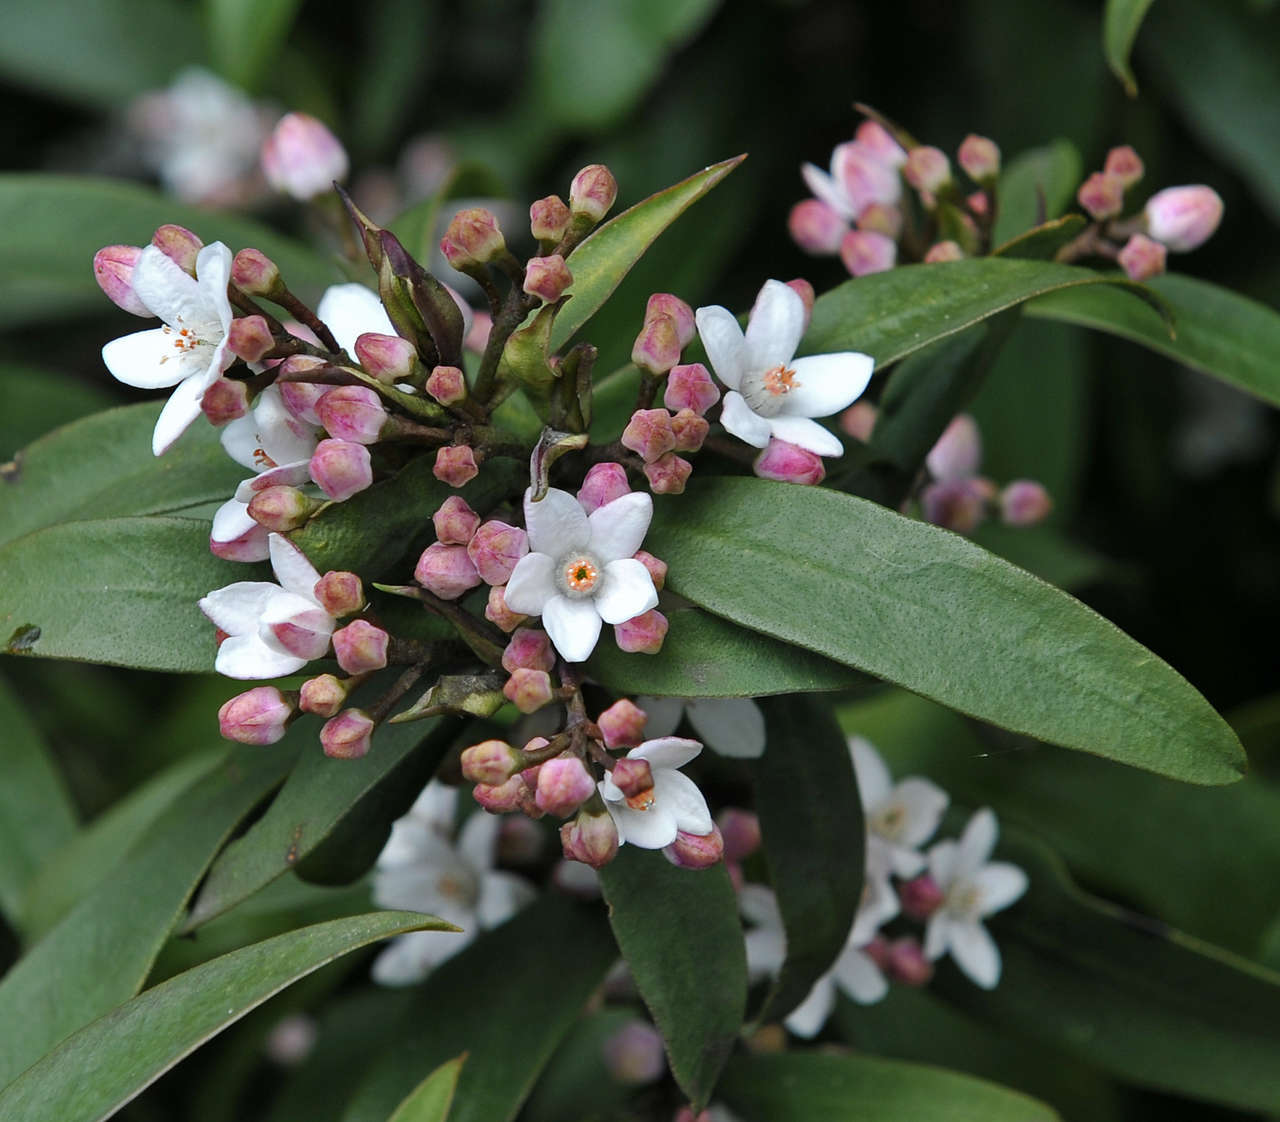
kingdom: Plantae
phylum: Tracheophyta
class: Magnoliopsida
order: Sapindales
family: Rutaceae
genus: Philotheca
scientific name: Philotheca myoporoides
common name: Longleaf waxflower
